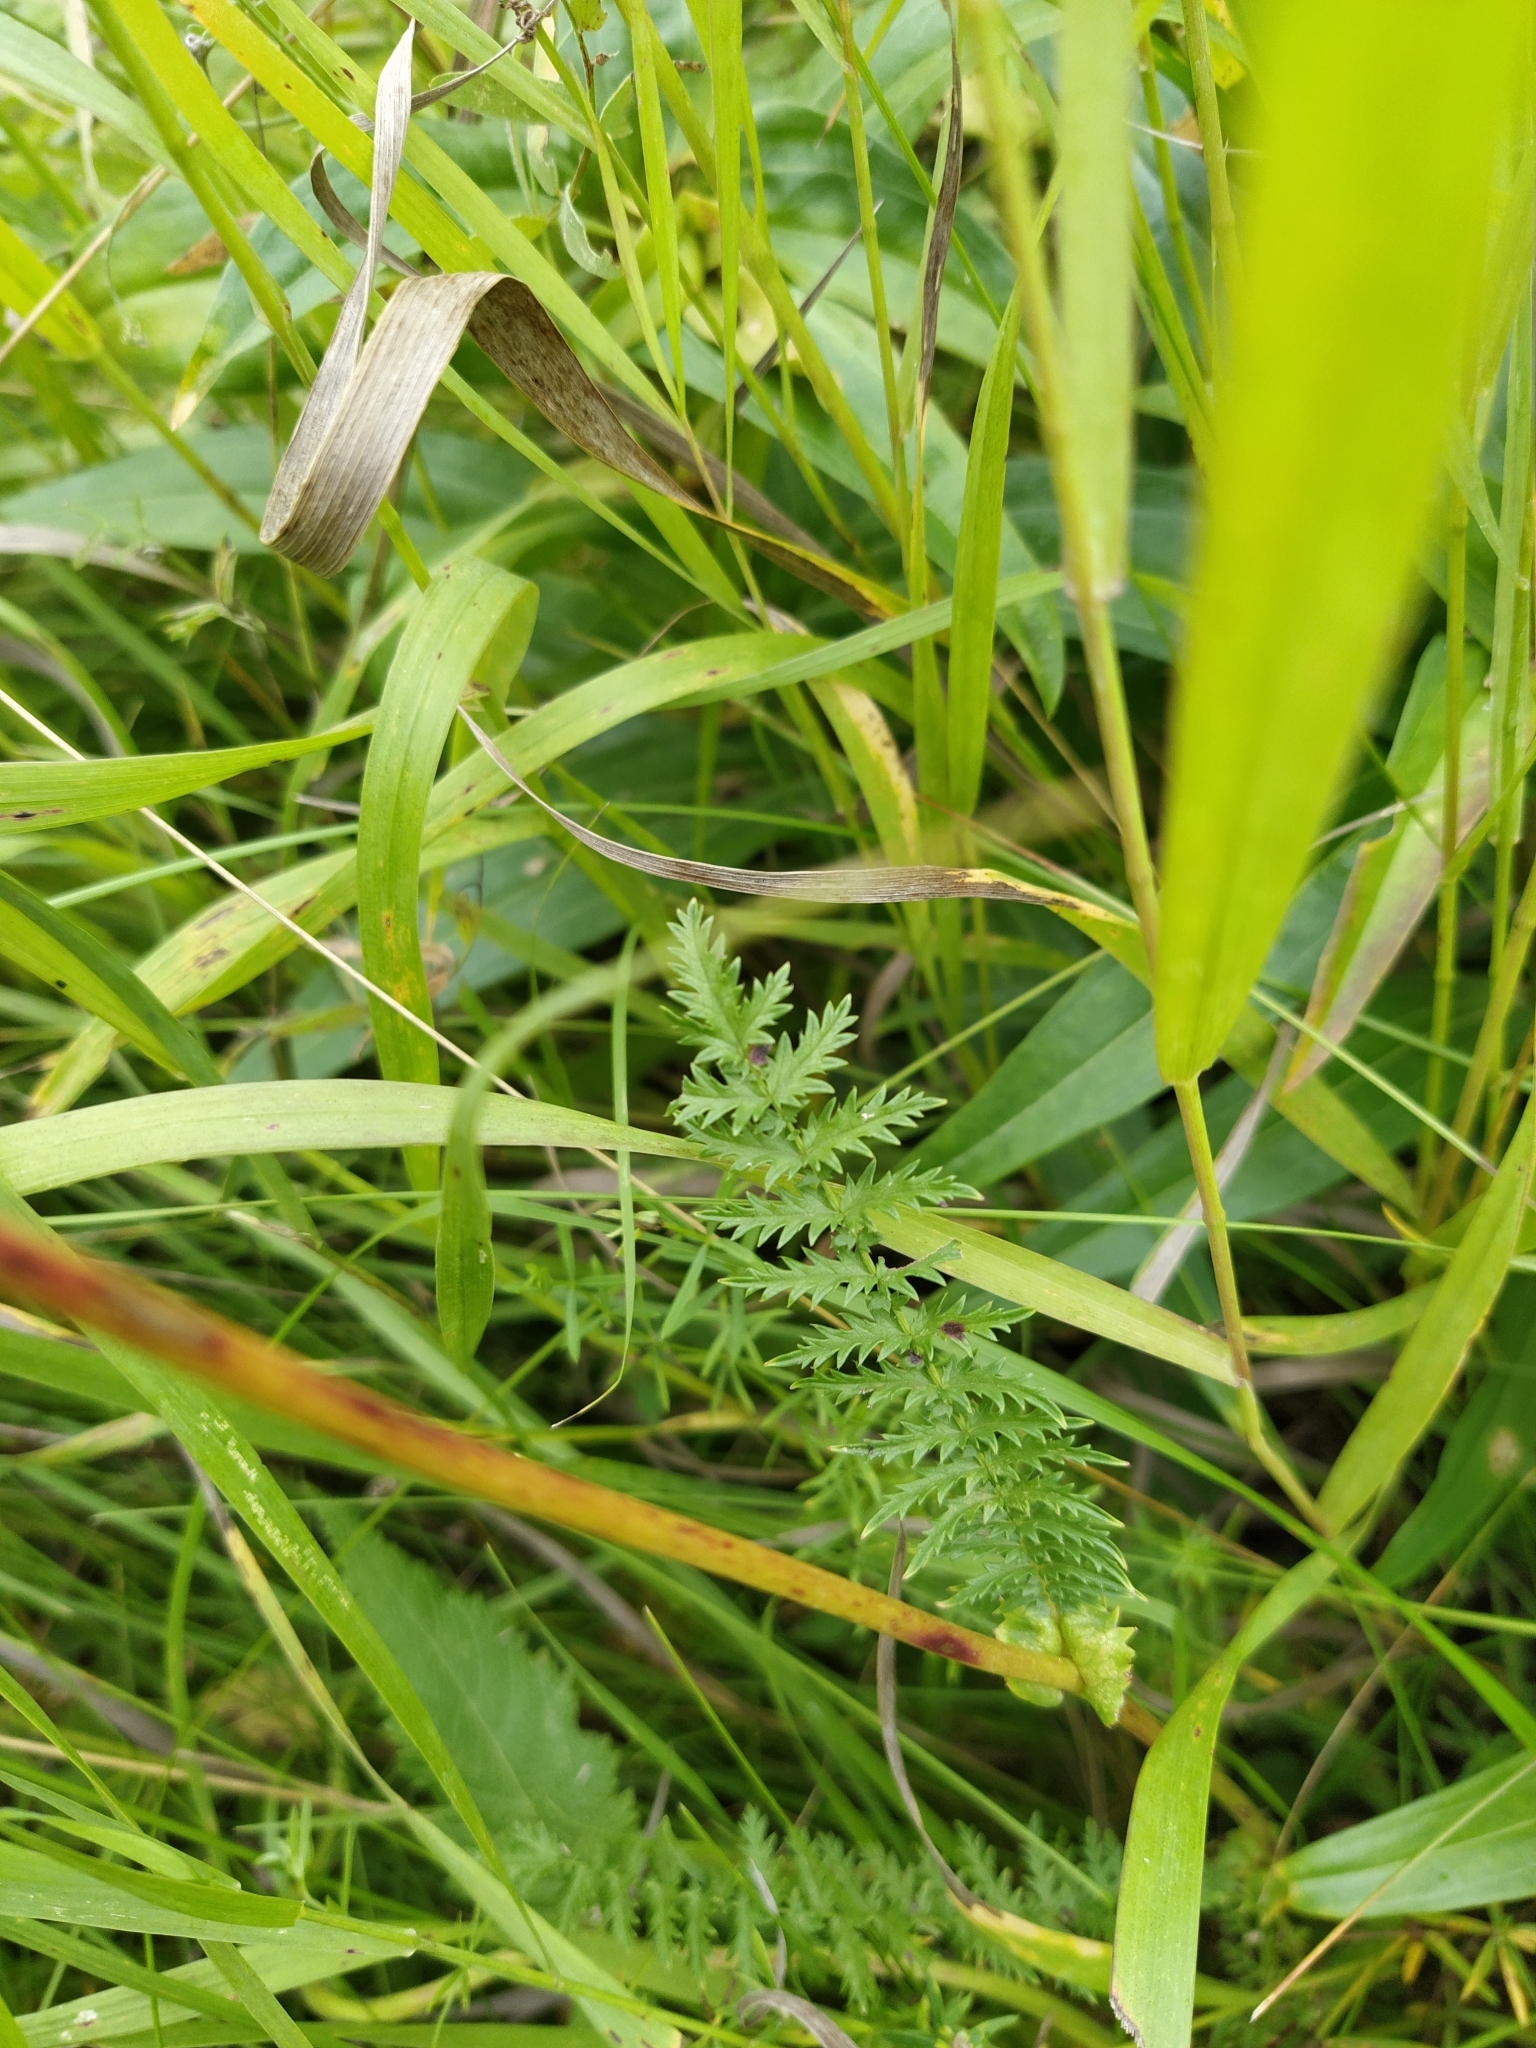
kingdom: Plantae
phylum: Tracheophyta
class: Magnoliopsida
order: Rosales
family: Rosaceae
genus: Filipendula
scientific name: Filipendula vulgaris
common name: Dropwort
